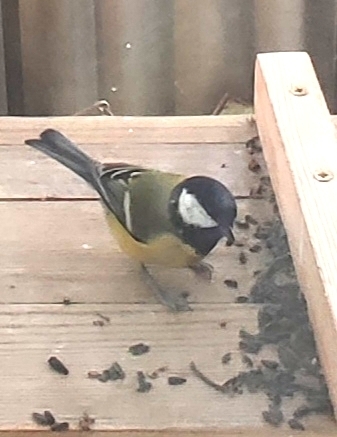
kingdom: Animalia
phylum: Chordata
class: Aves
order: Passeriformes
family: Paridae
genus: Parus
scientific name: Parus major
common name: Great tit
